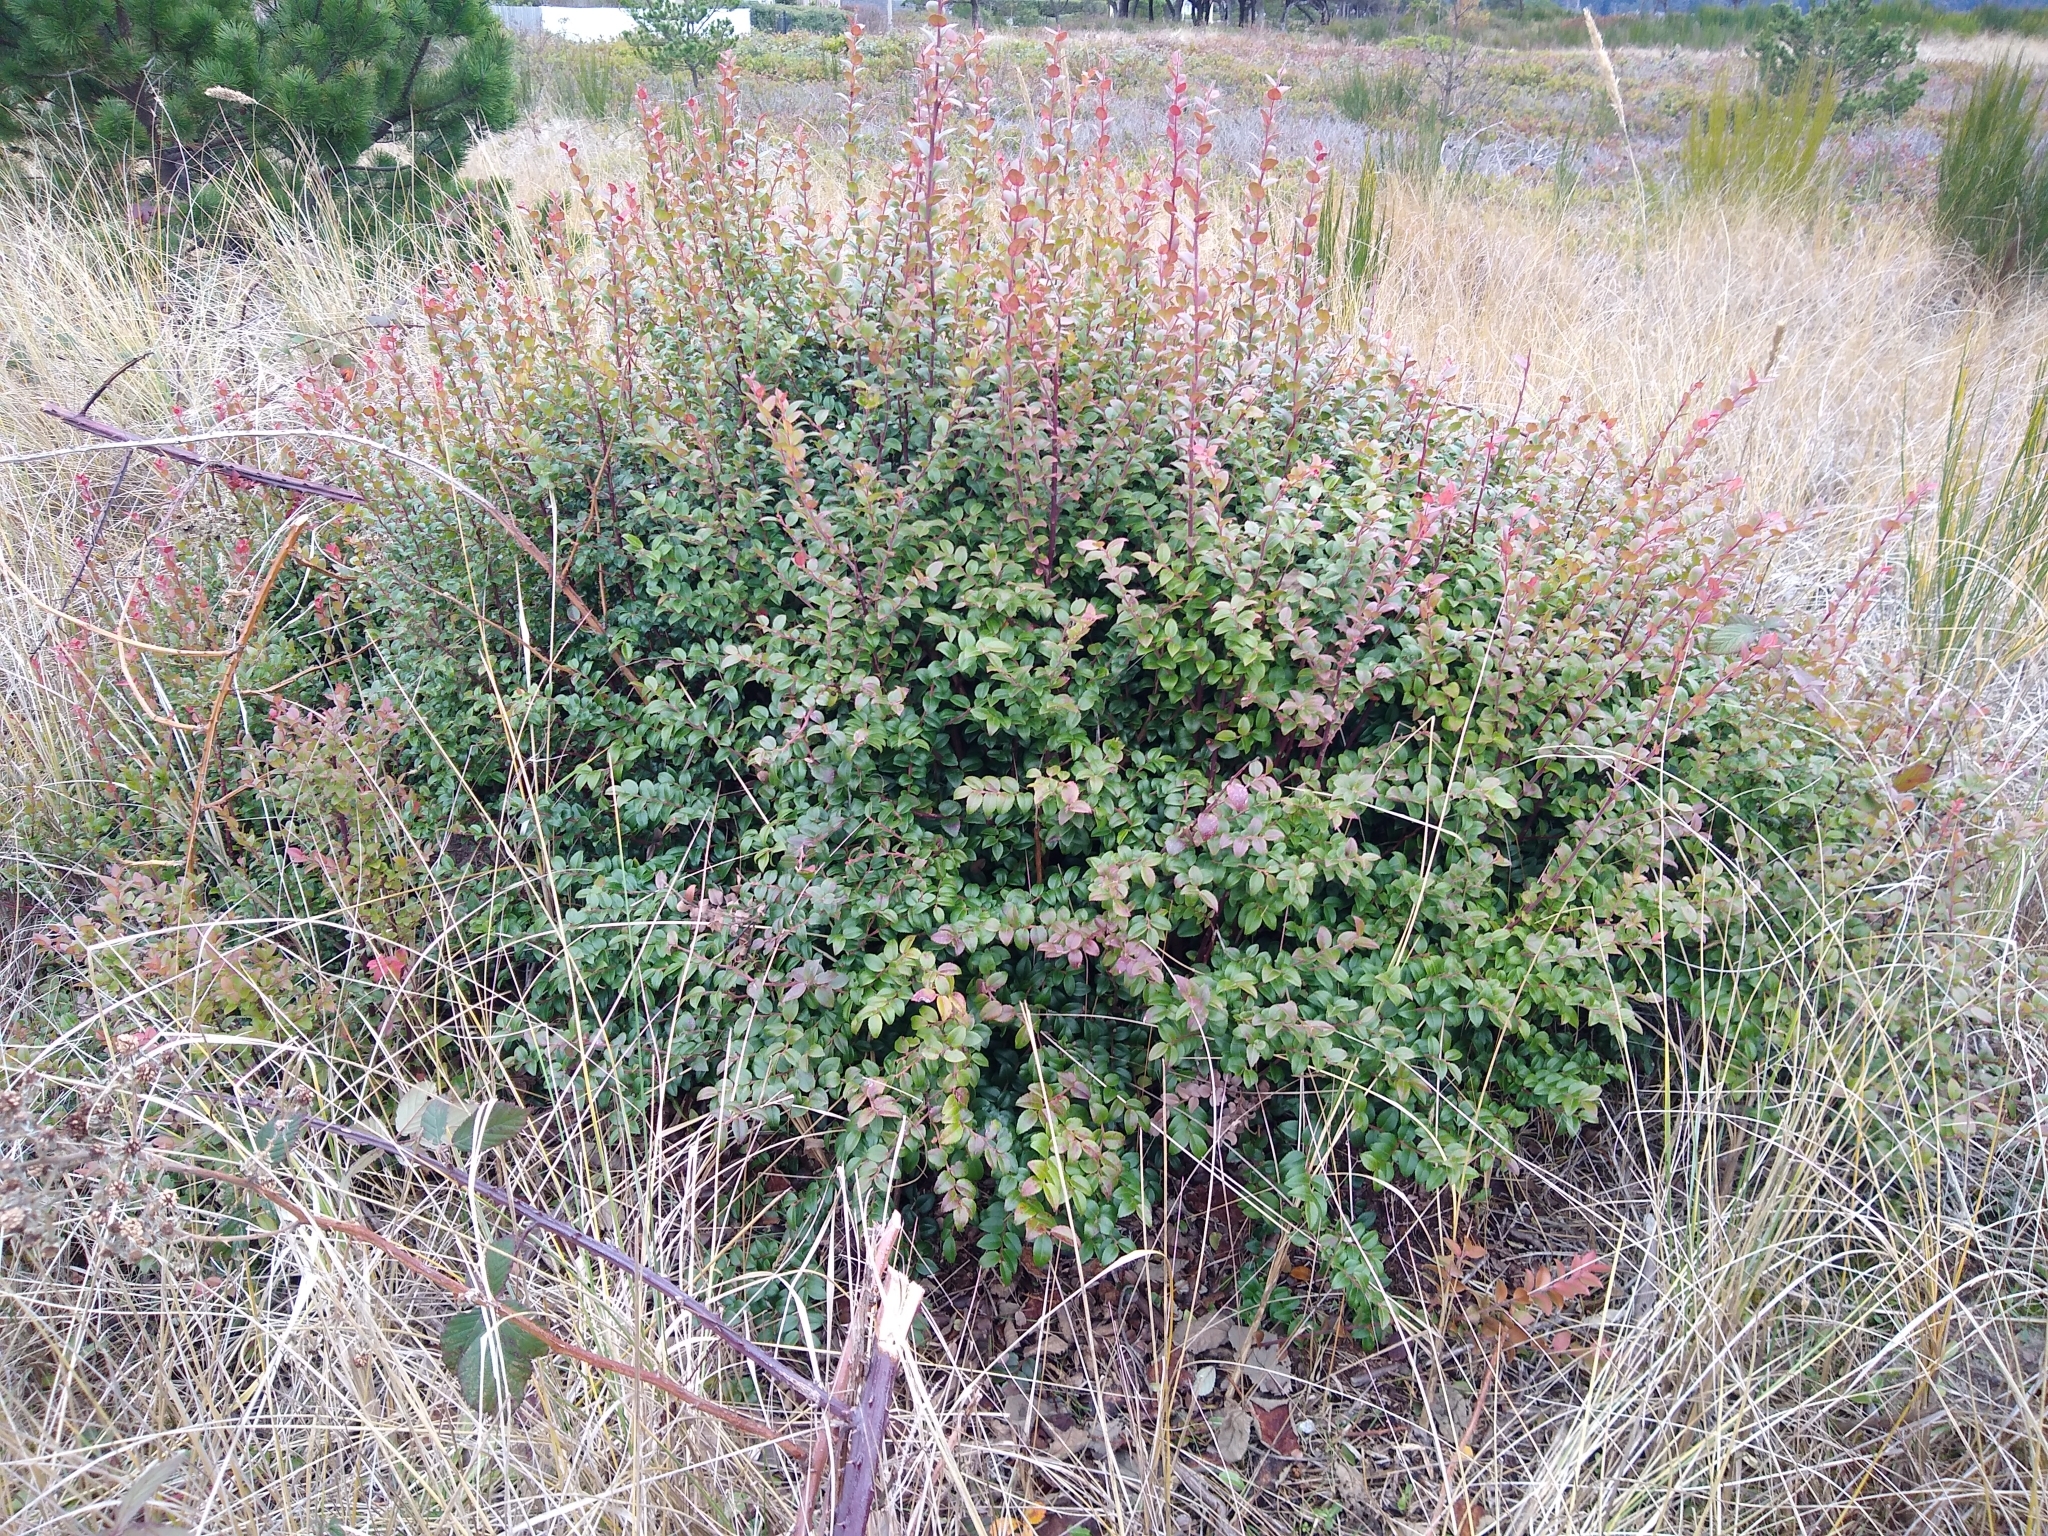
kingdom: Plantae
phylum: Tracheophyta
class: Magnoliopsida
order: Ericales
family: Ericaceae
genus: Vaccinium
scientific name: Vaccinium ovatum
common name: California-huckleberry
